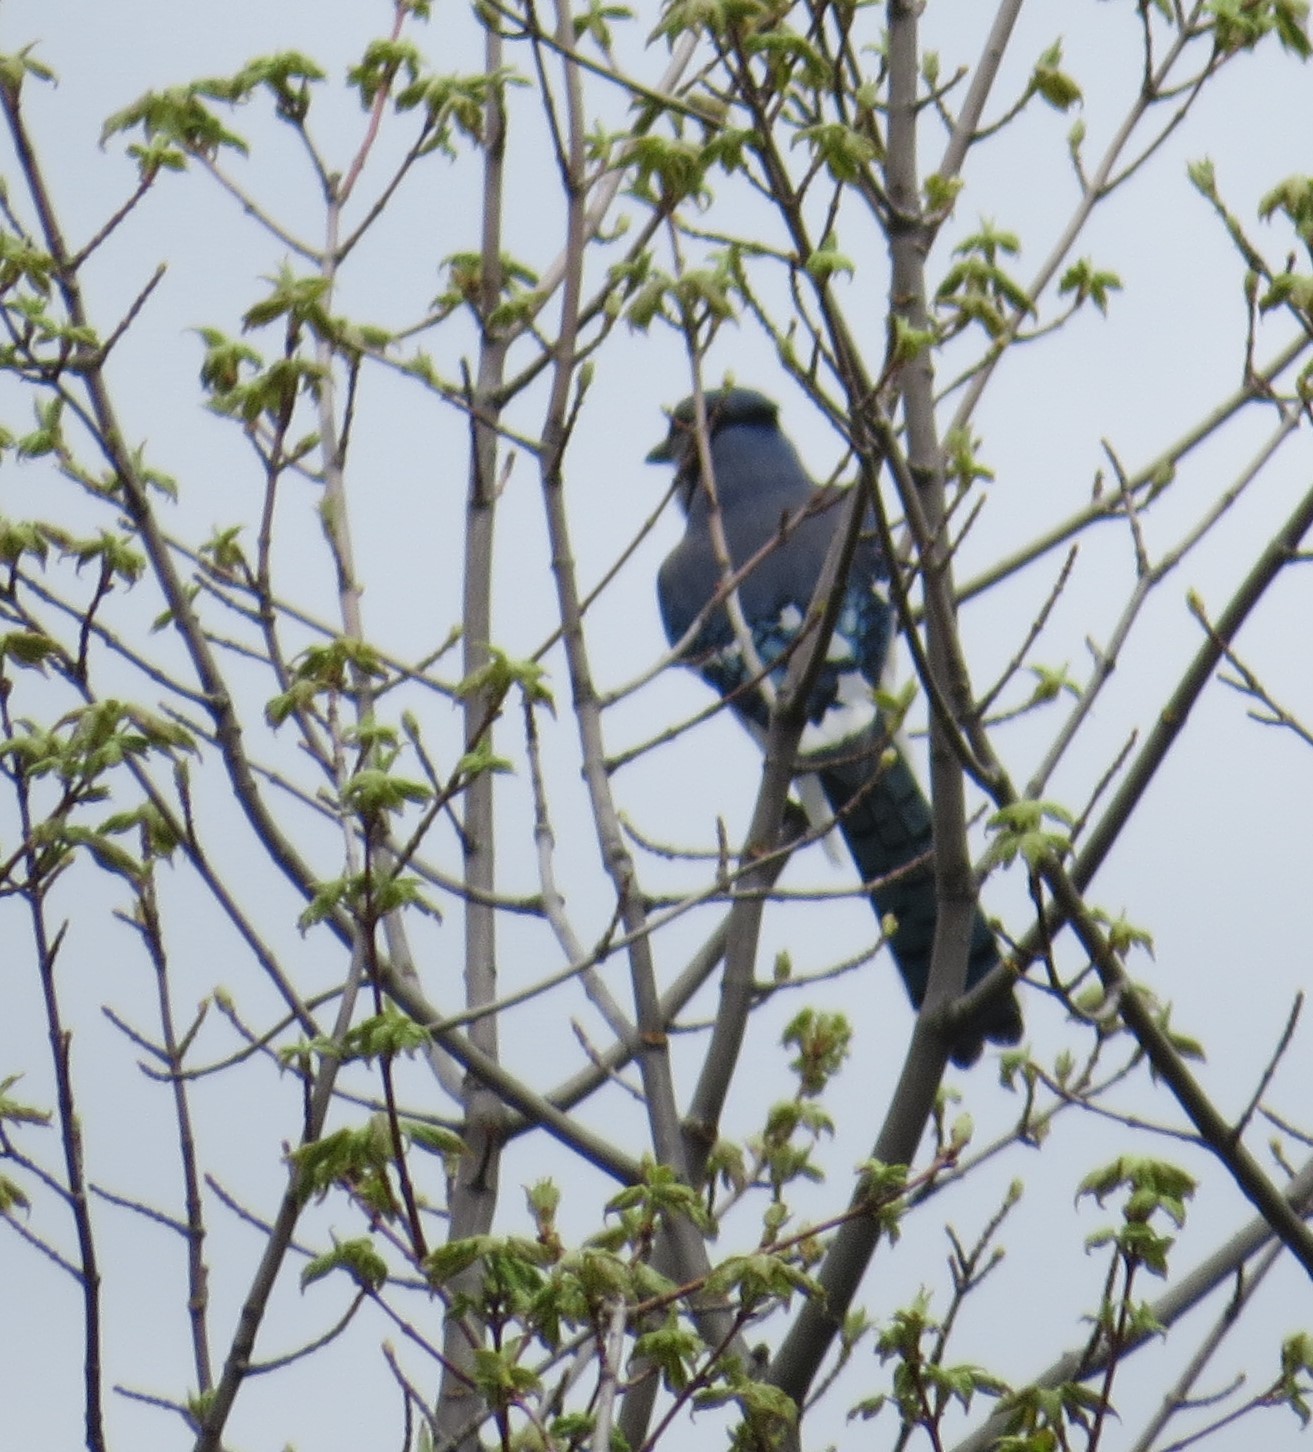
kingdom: Animalia
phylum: Chordata
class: Aves
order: Passeriformes
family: Corvidae
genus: Cyanocitta
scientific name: Cyanocitta cristata
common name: Blue jay
